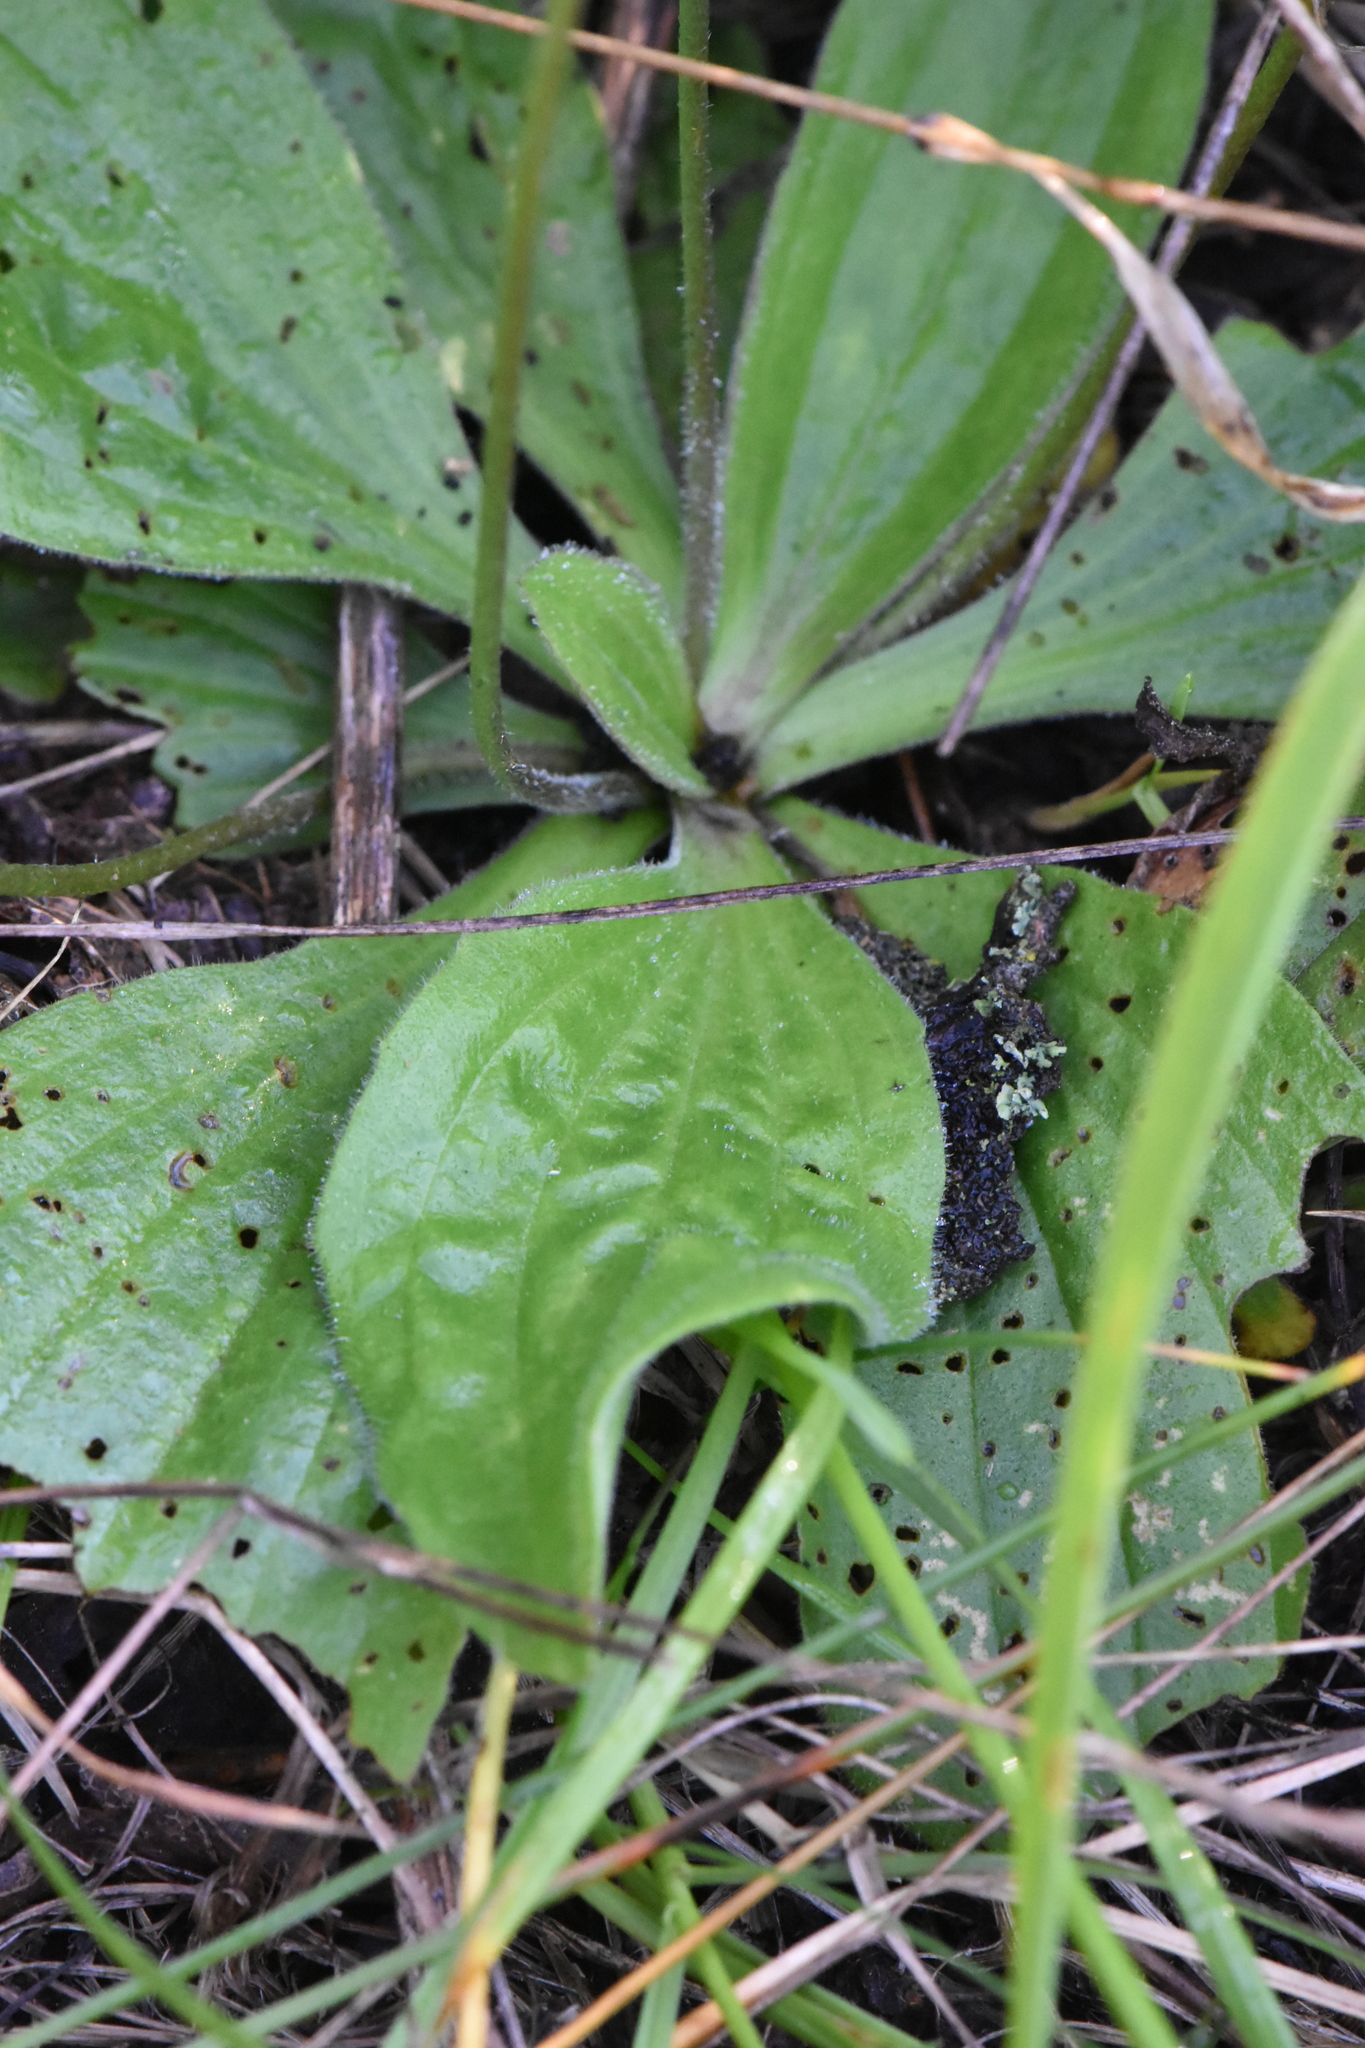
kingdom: Plantae
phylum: Tracheophyta
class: Magnoliopsida
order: Lamiales
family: Plantaginaceae
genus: Plantago
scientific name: Plantago media
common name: Hoary plantain
